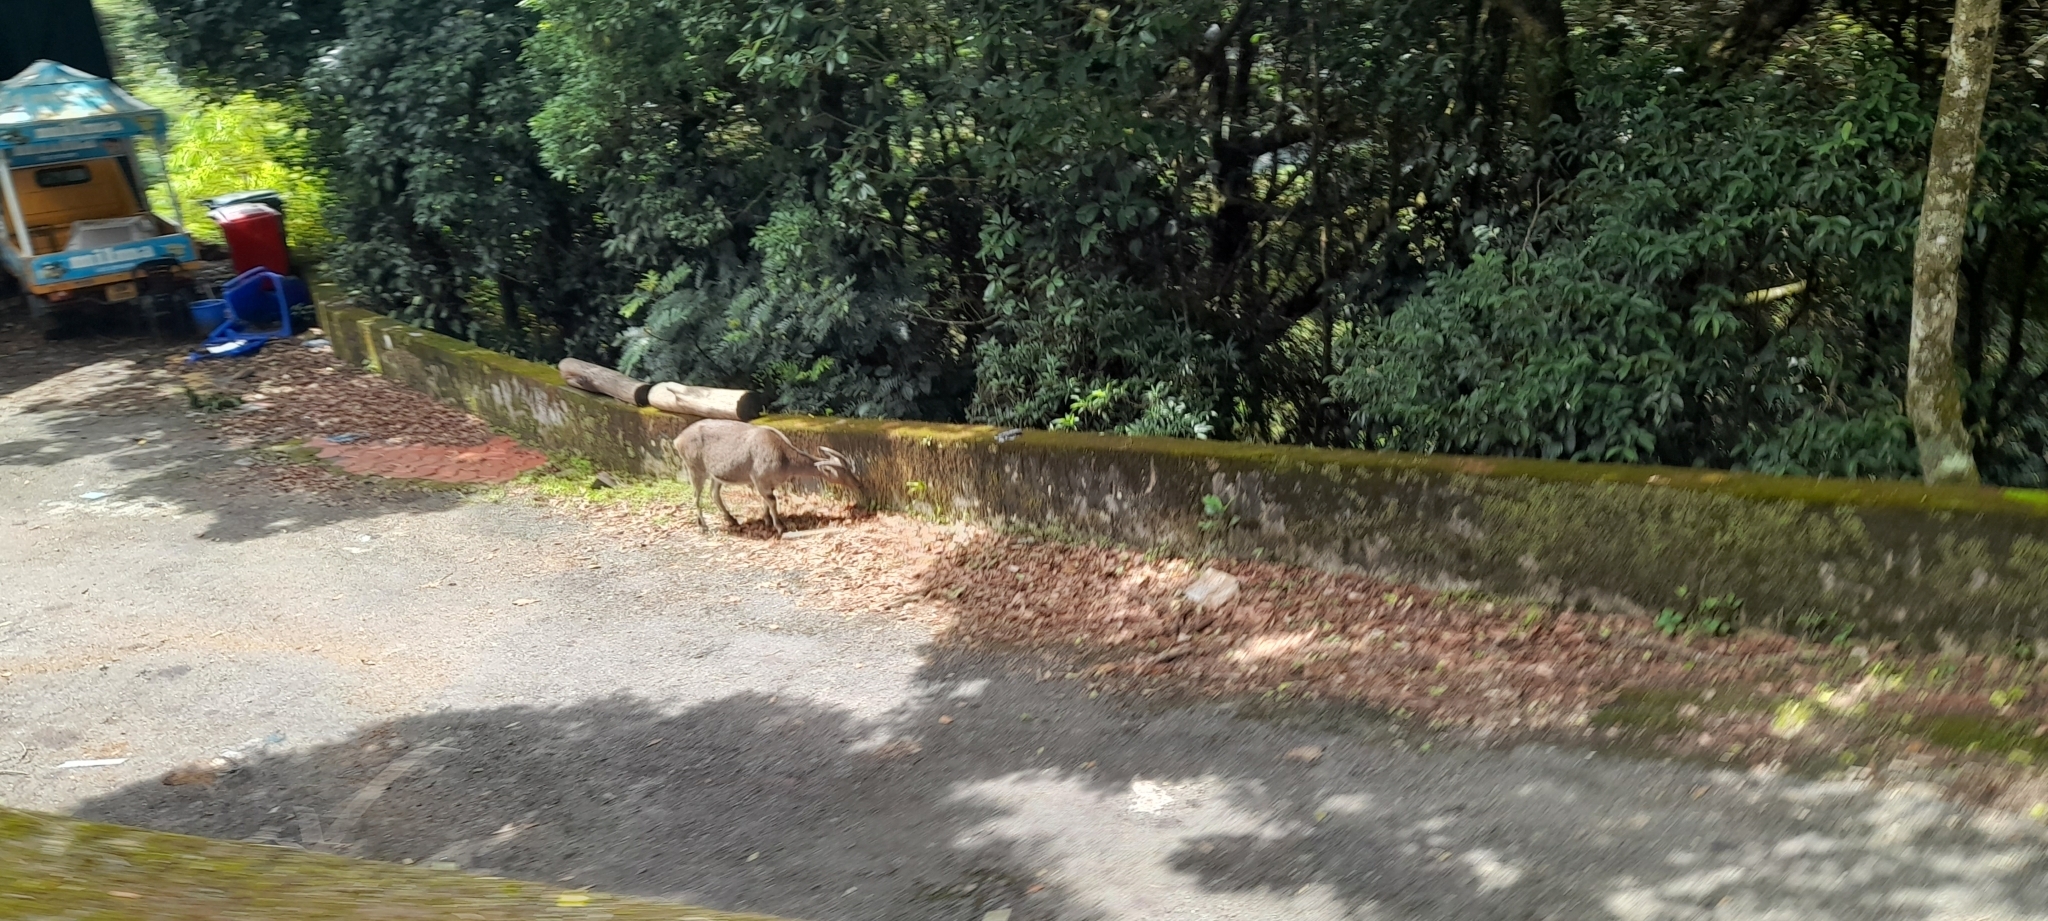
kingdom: Animalia
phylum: Chordata
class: Mammalia
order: Artiodactyla
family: Bovidae
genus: Hemitragus
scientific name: Hemitragus hylocrius
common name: Nilgiri tahr
